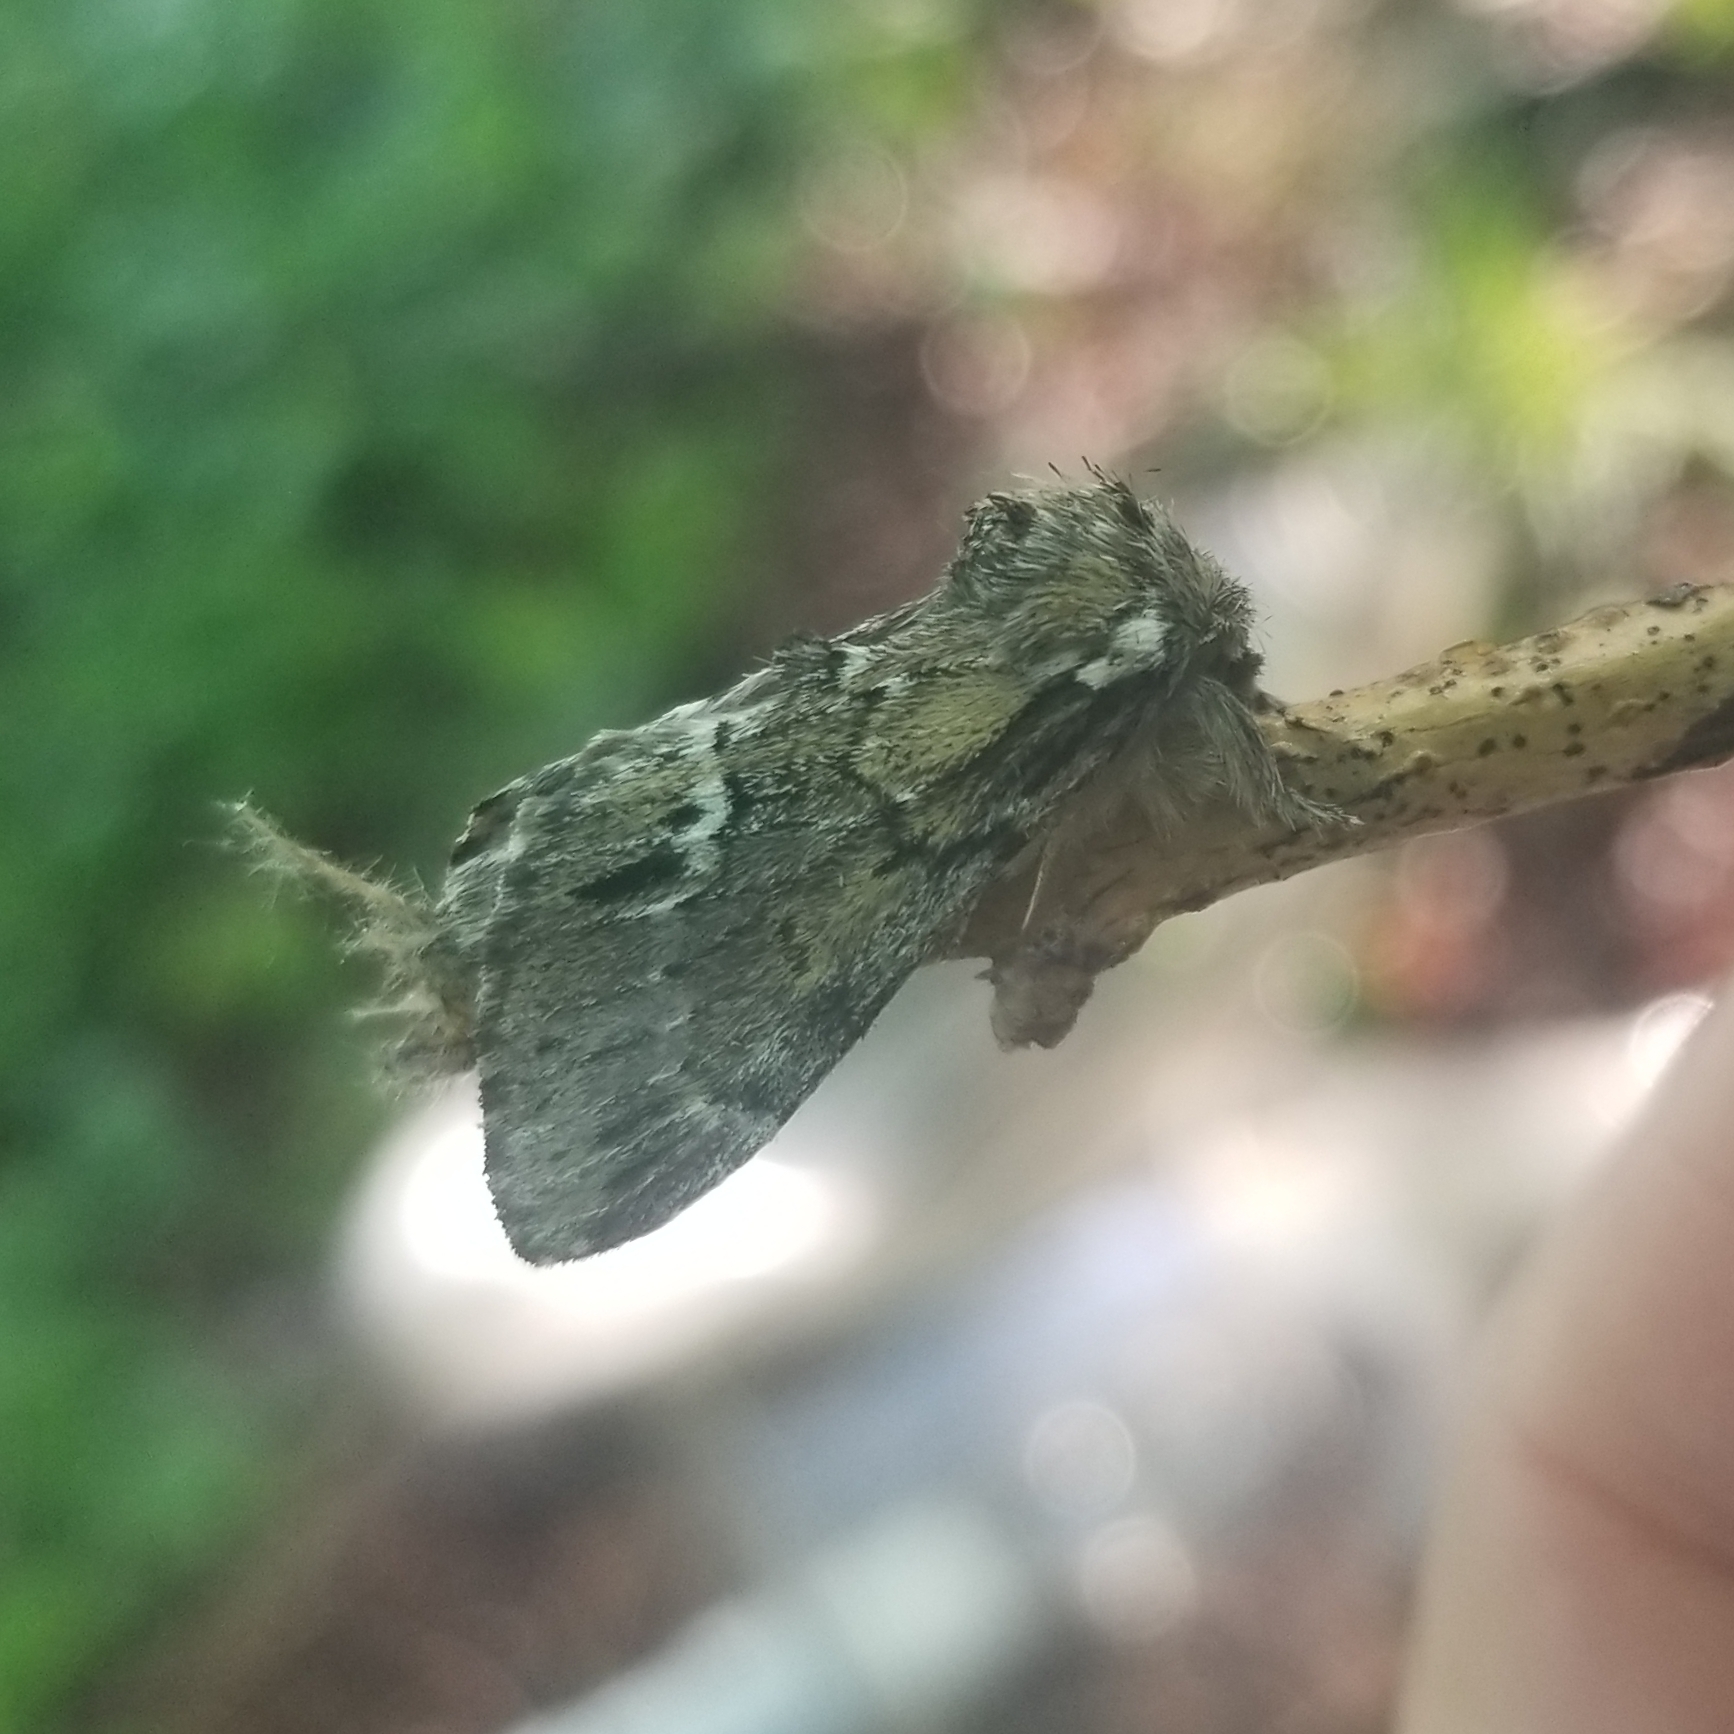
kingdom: Animalia
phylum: Arthropoda
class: Insecta
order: Lepidoptera
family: Notodontidae
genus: Paraeschra
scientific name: Paraeschra georgica
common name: Georgian prominent
